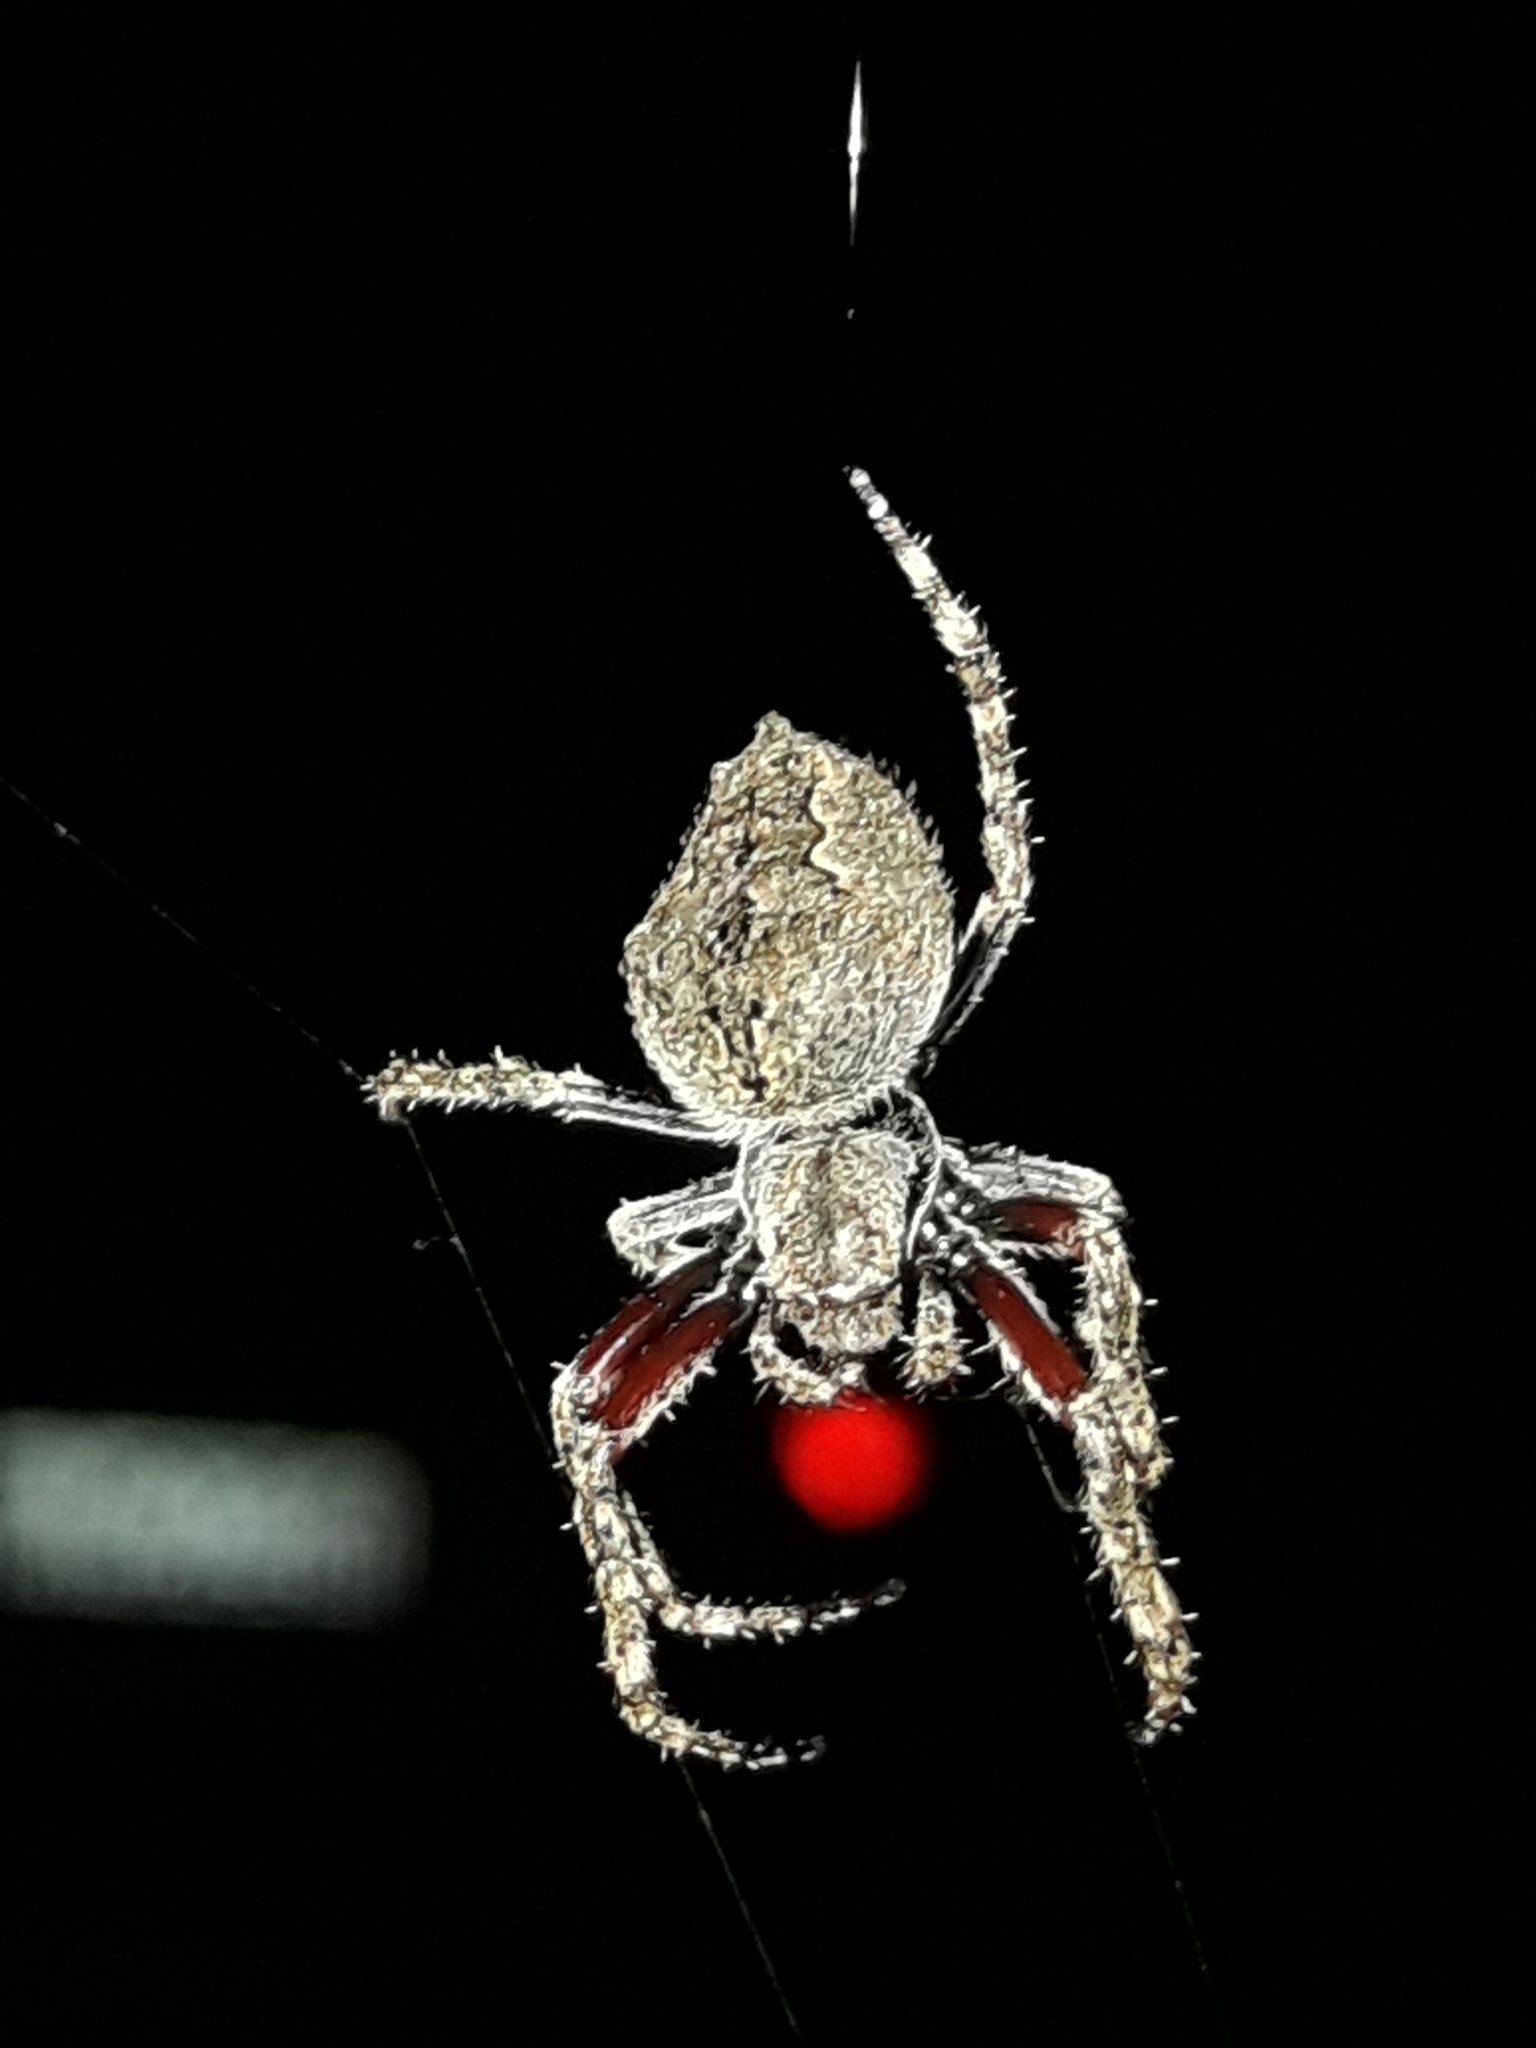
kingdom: Animalia
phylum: Arthropoda
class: Arachnida
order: Araneae
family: Araneidae
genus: Eriophora
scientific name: Eriophora pustulosa
